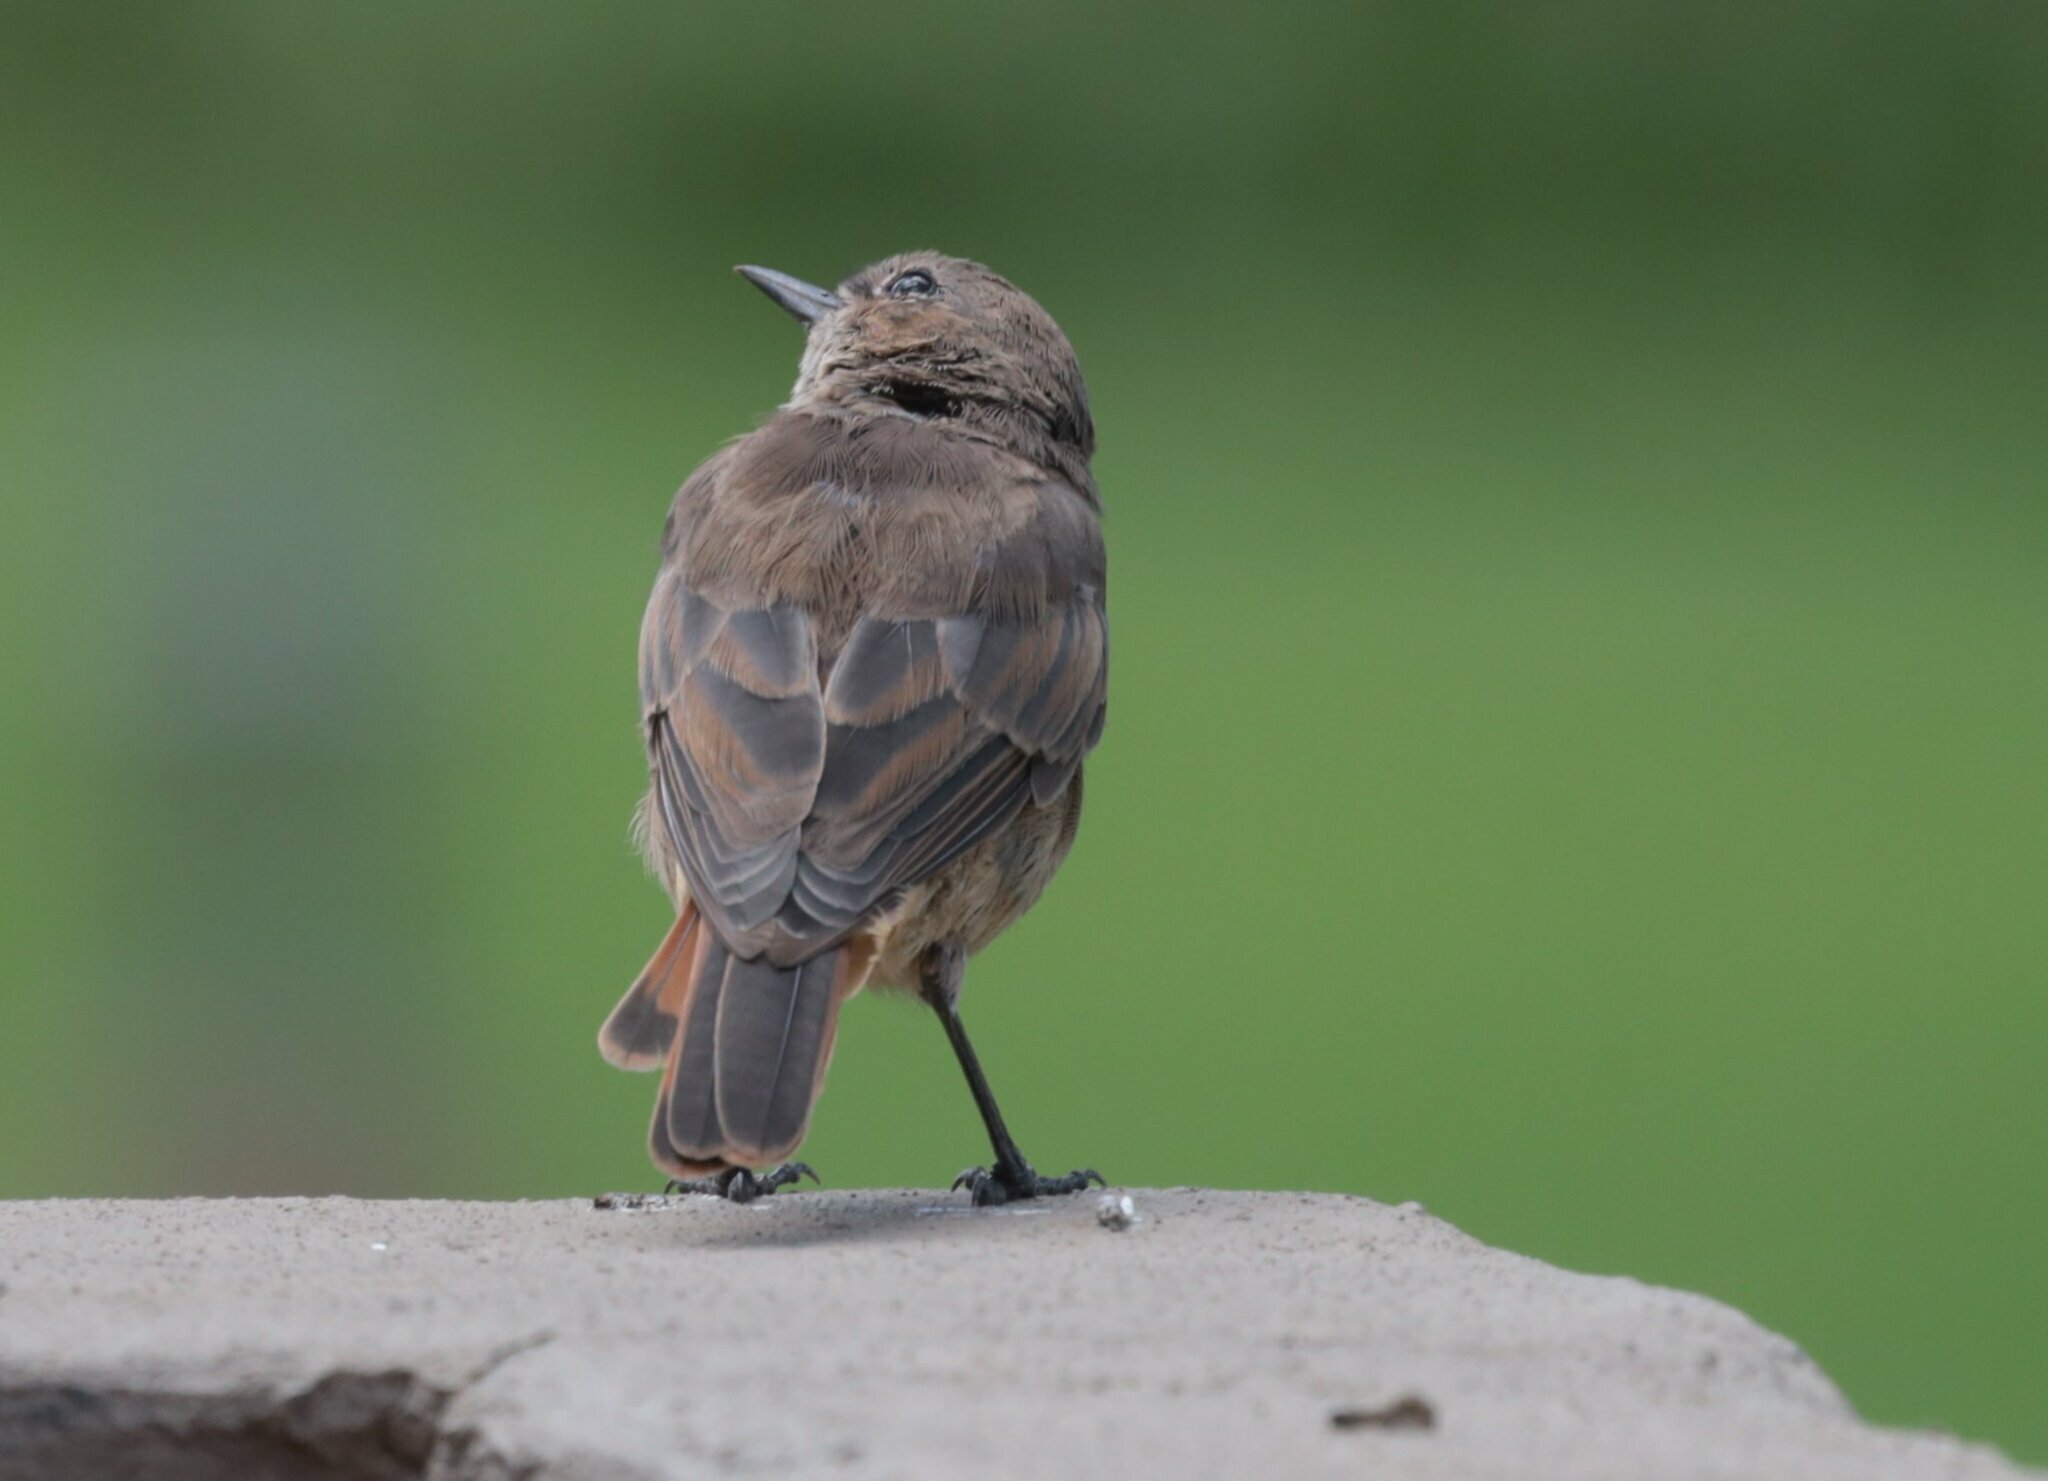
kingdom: Animalia
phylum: Chordata
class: Aves
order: Passeriformes
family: Muscicapidae
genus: Oenanthe
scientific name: Oenanthe familiaris
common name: Familiar chat
